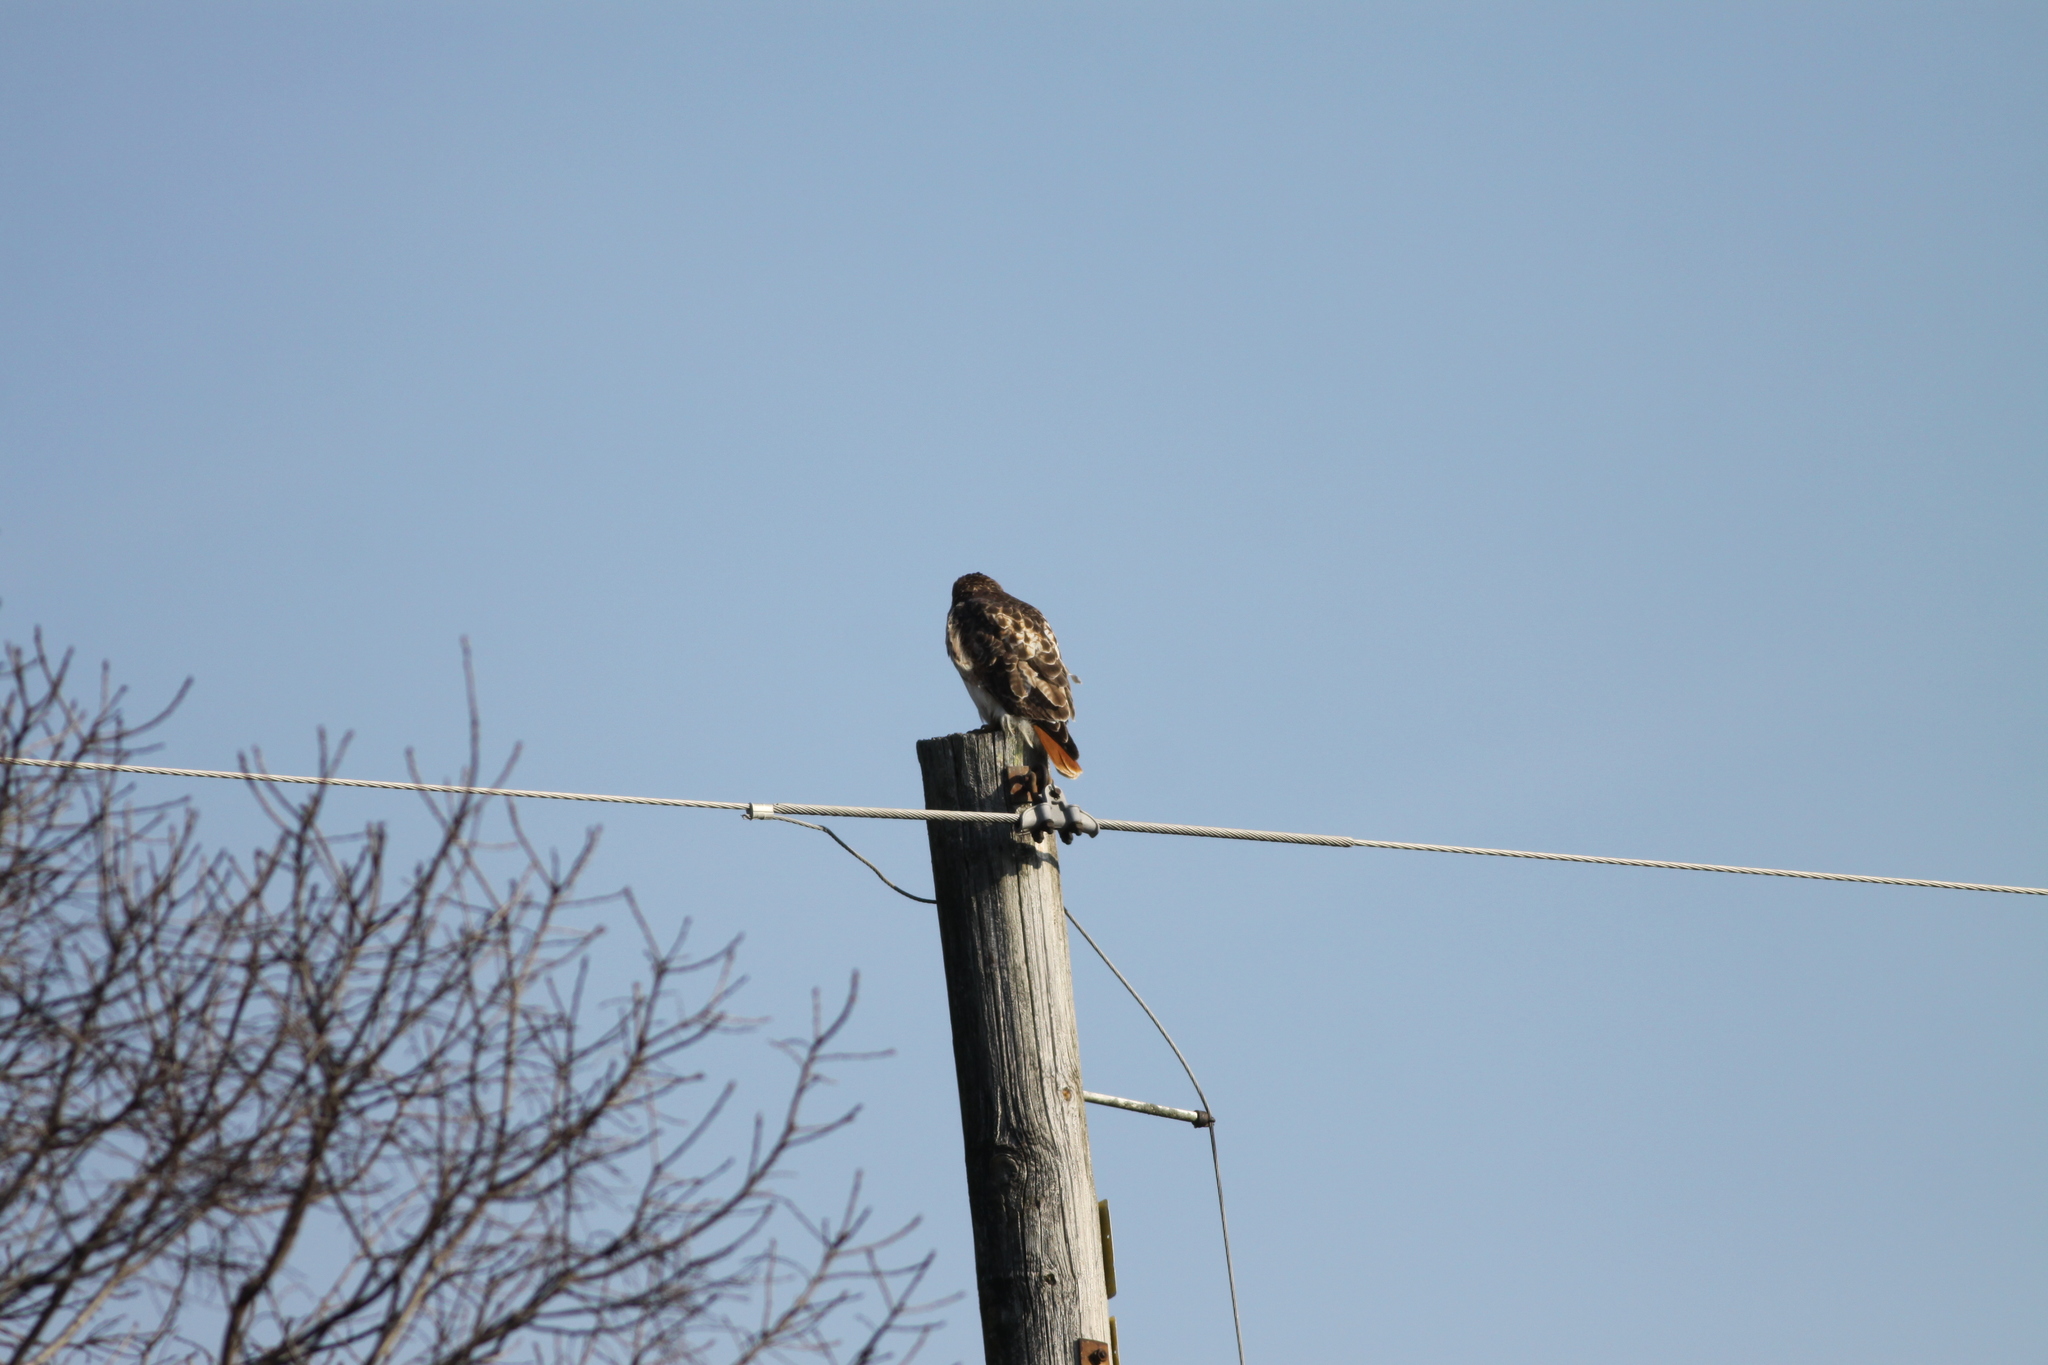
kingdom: Animalia
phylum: Chordata
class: Aves
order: Accipitriformes
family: Accipitridae
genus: Buteo
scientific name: Buteo jamaicensis
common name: Red-tailed hawk
